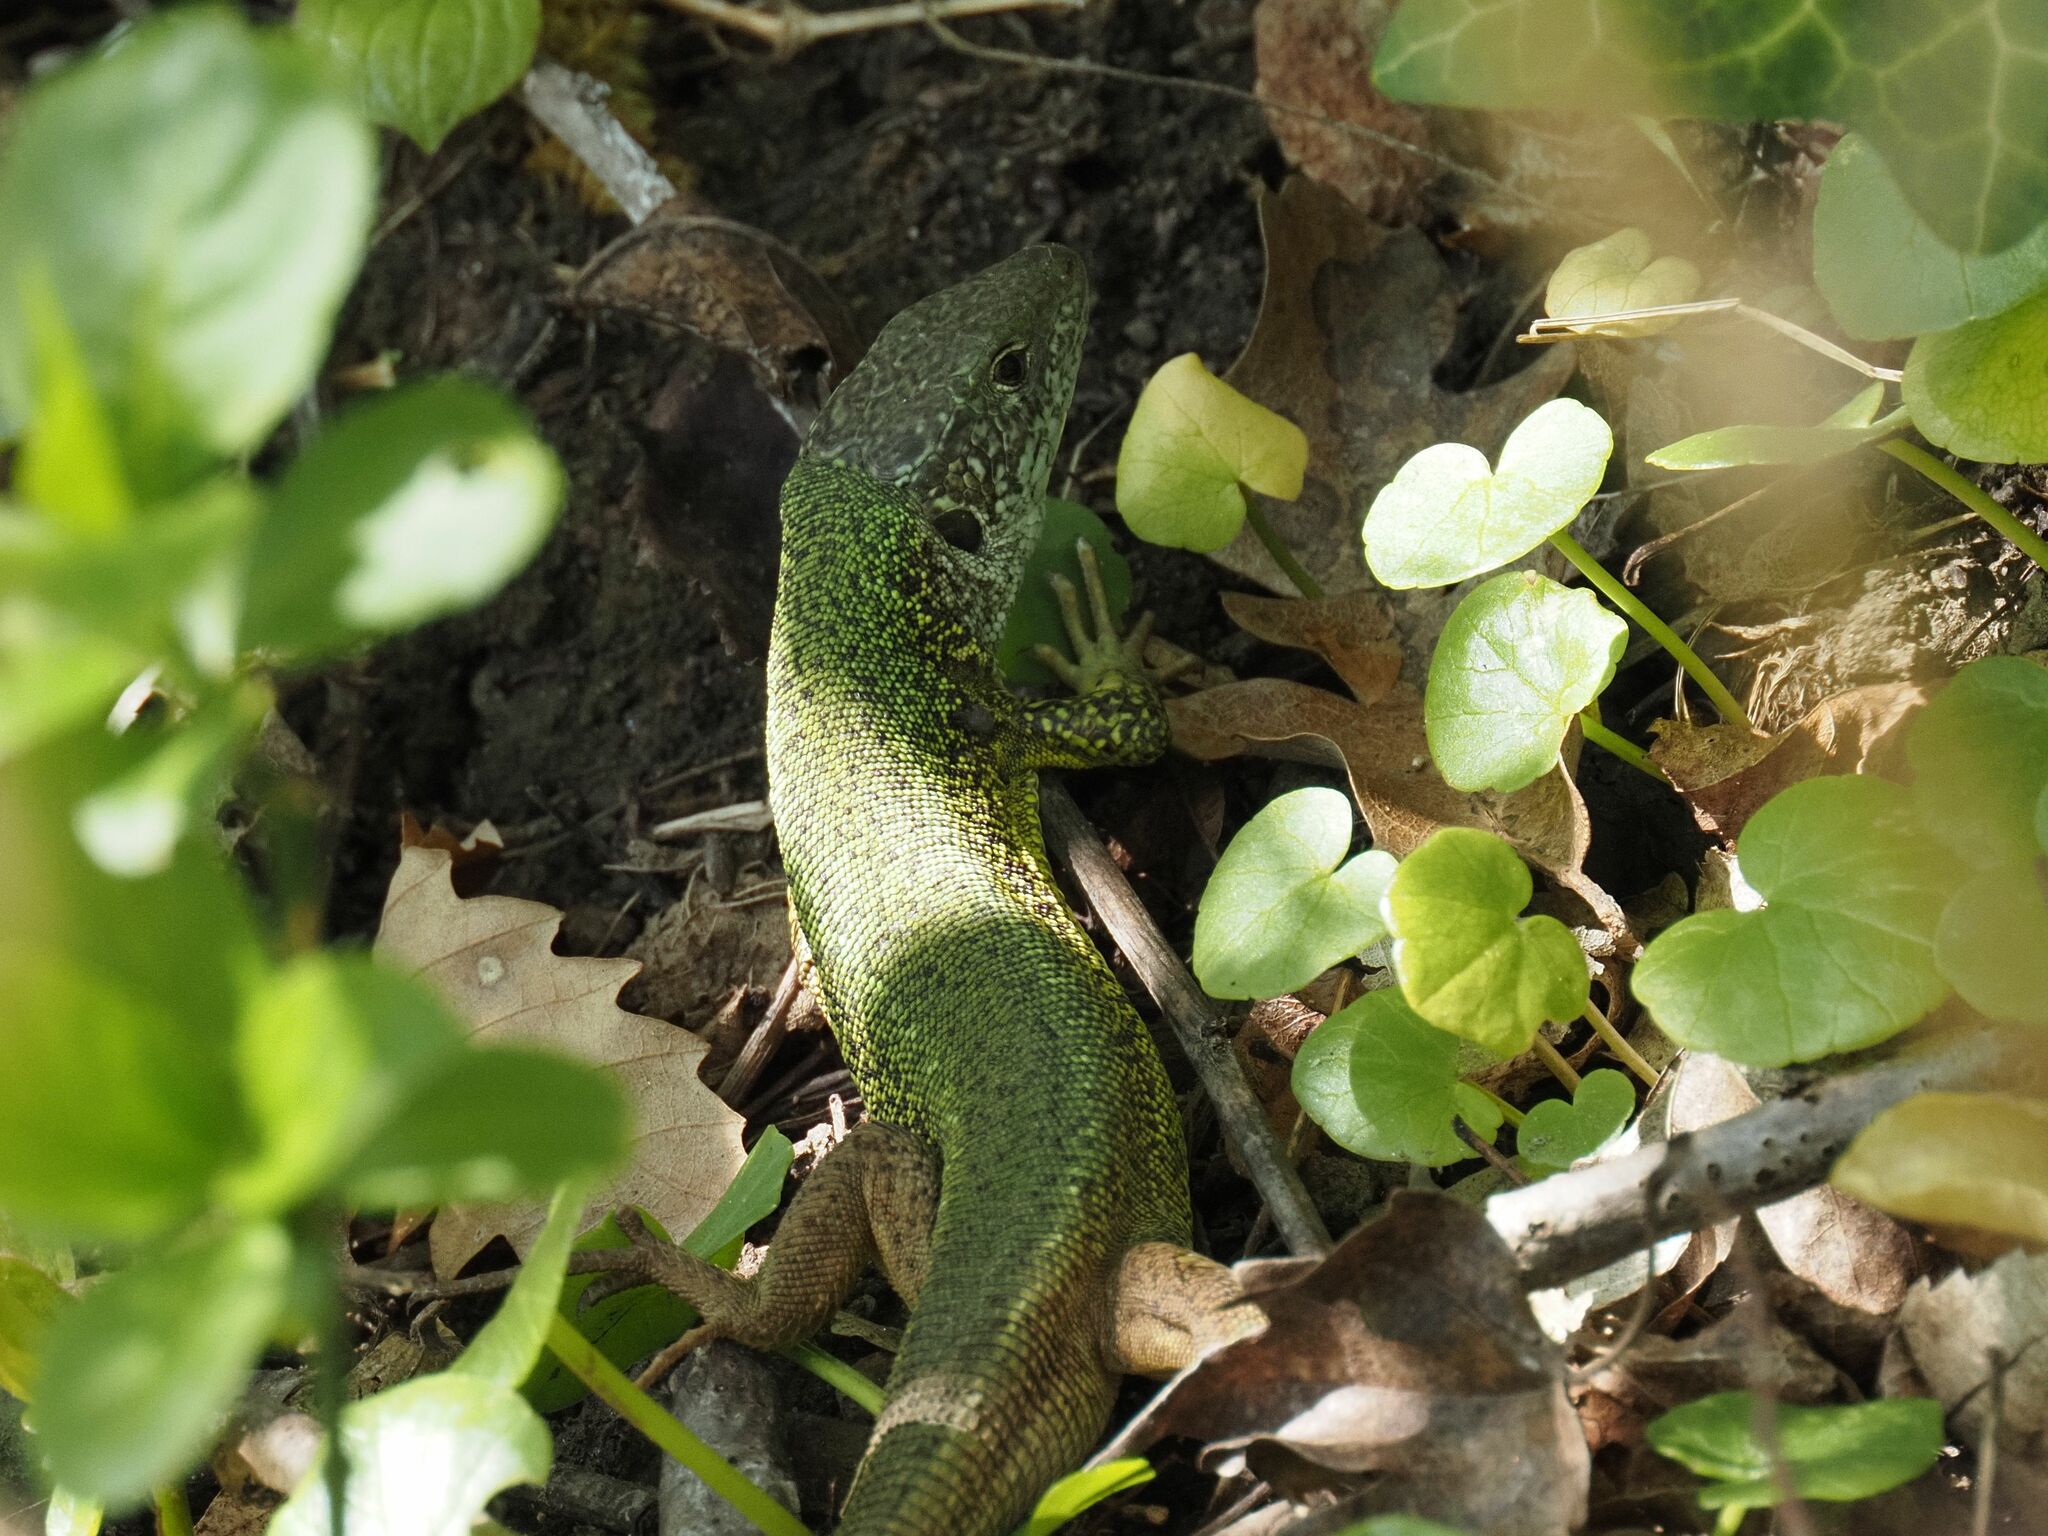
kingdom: Animalia
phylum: Chordata
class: Squamata
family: Lacertidae
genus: Lacerta
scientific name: Lacerta viridis
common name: European green lizard
